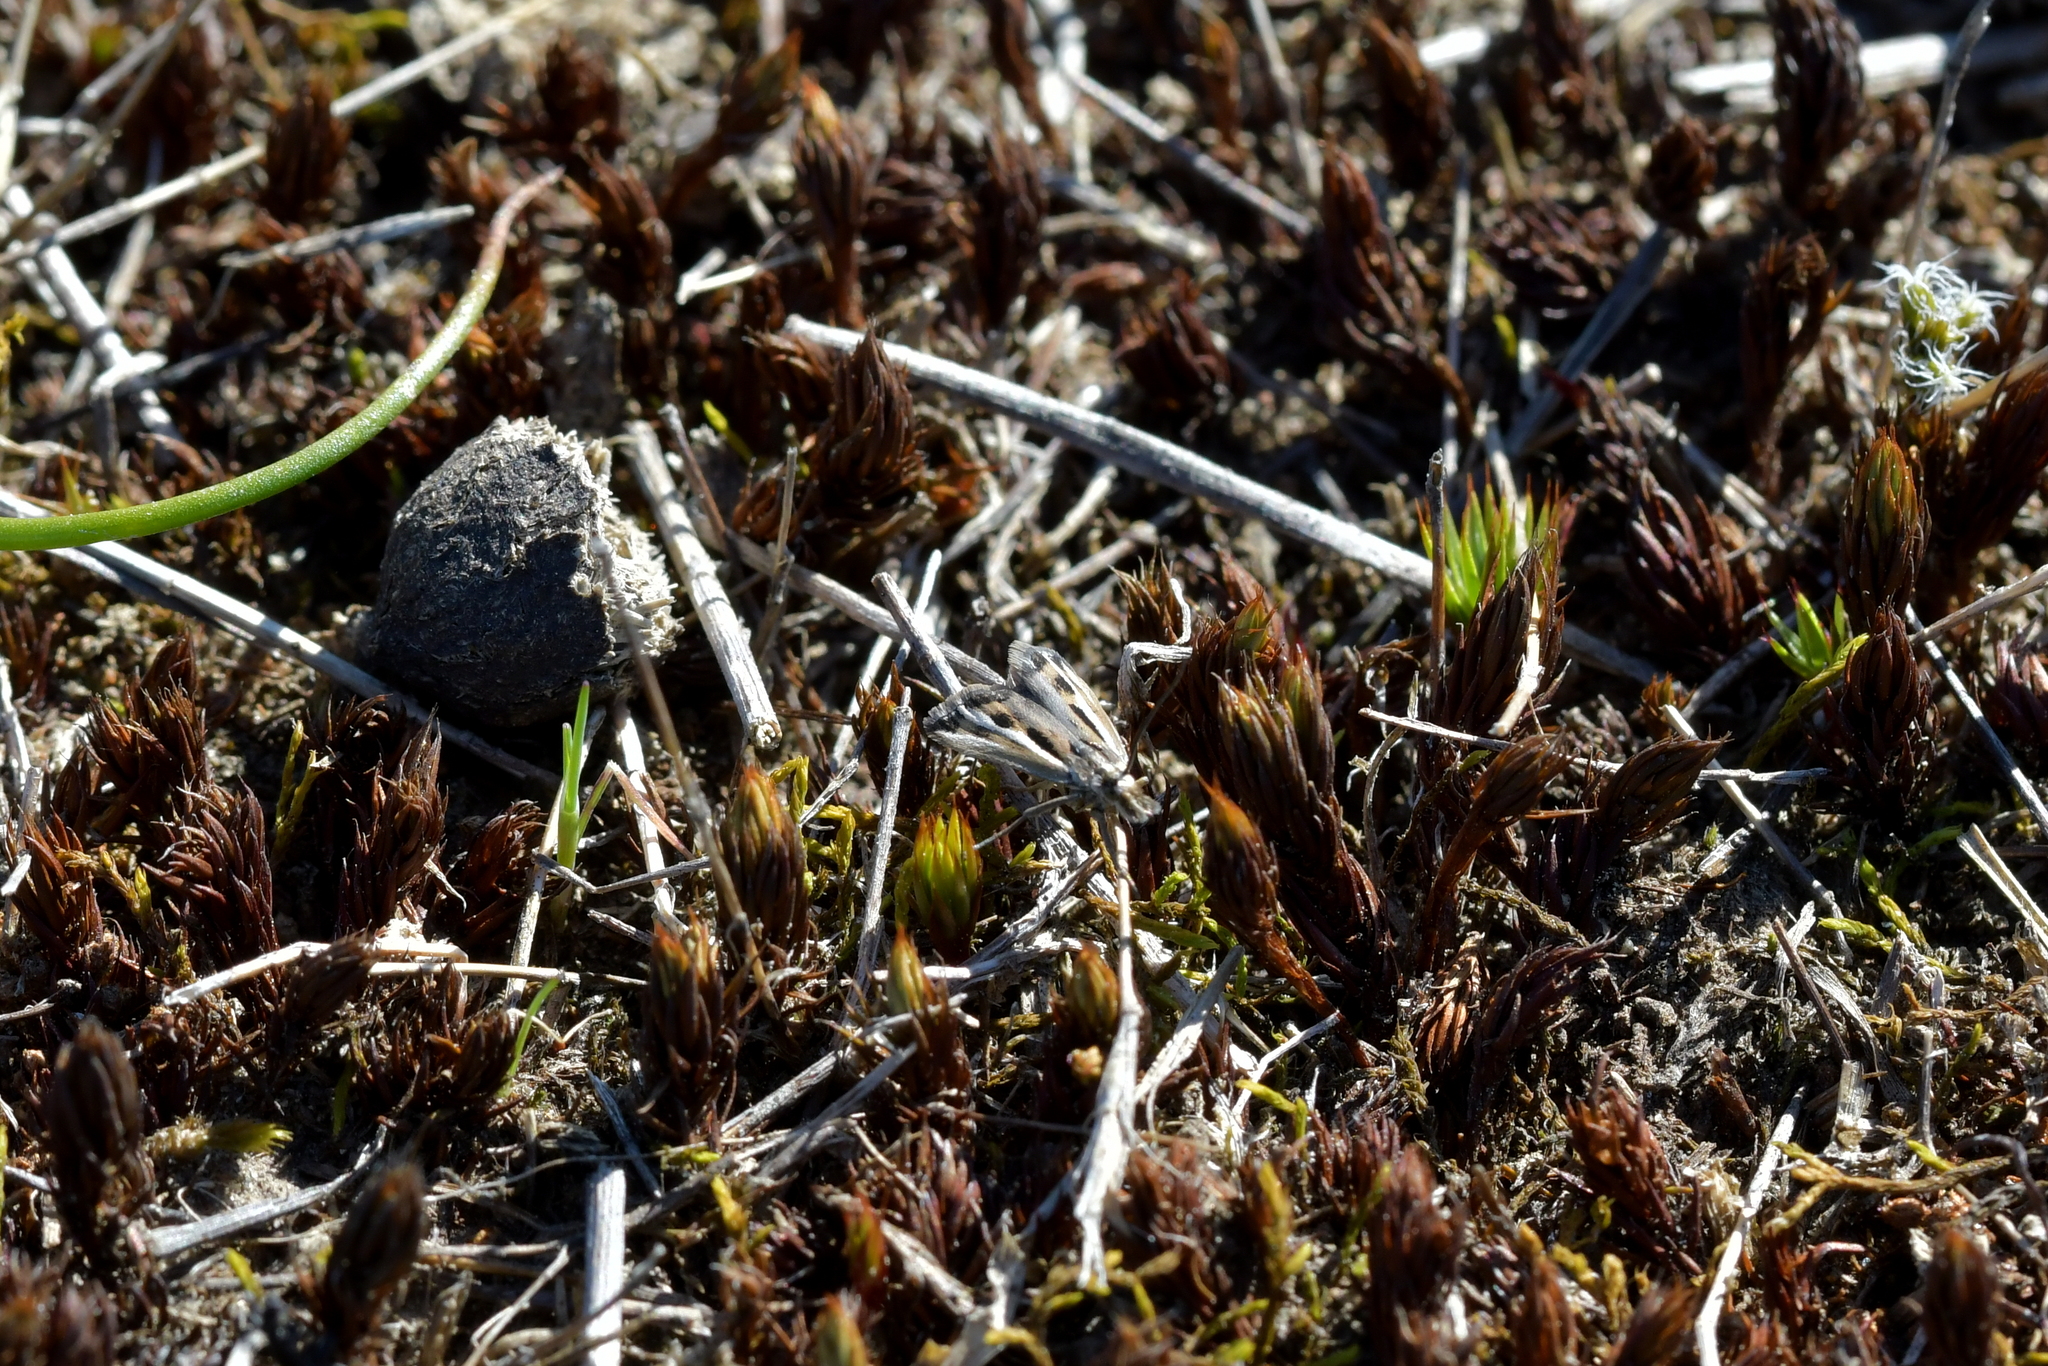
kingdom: Animalia
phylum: Arthropoda
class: Insecta
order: Lepidoptera
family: Crambidae
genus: Orocrambus
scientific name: Orocrambus corruptus
